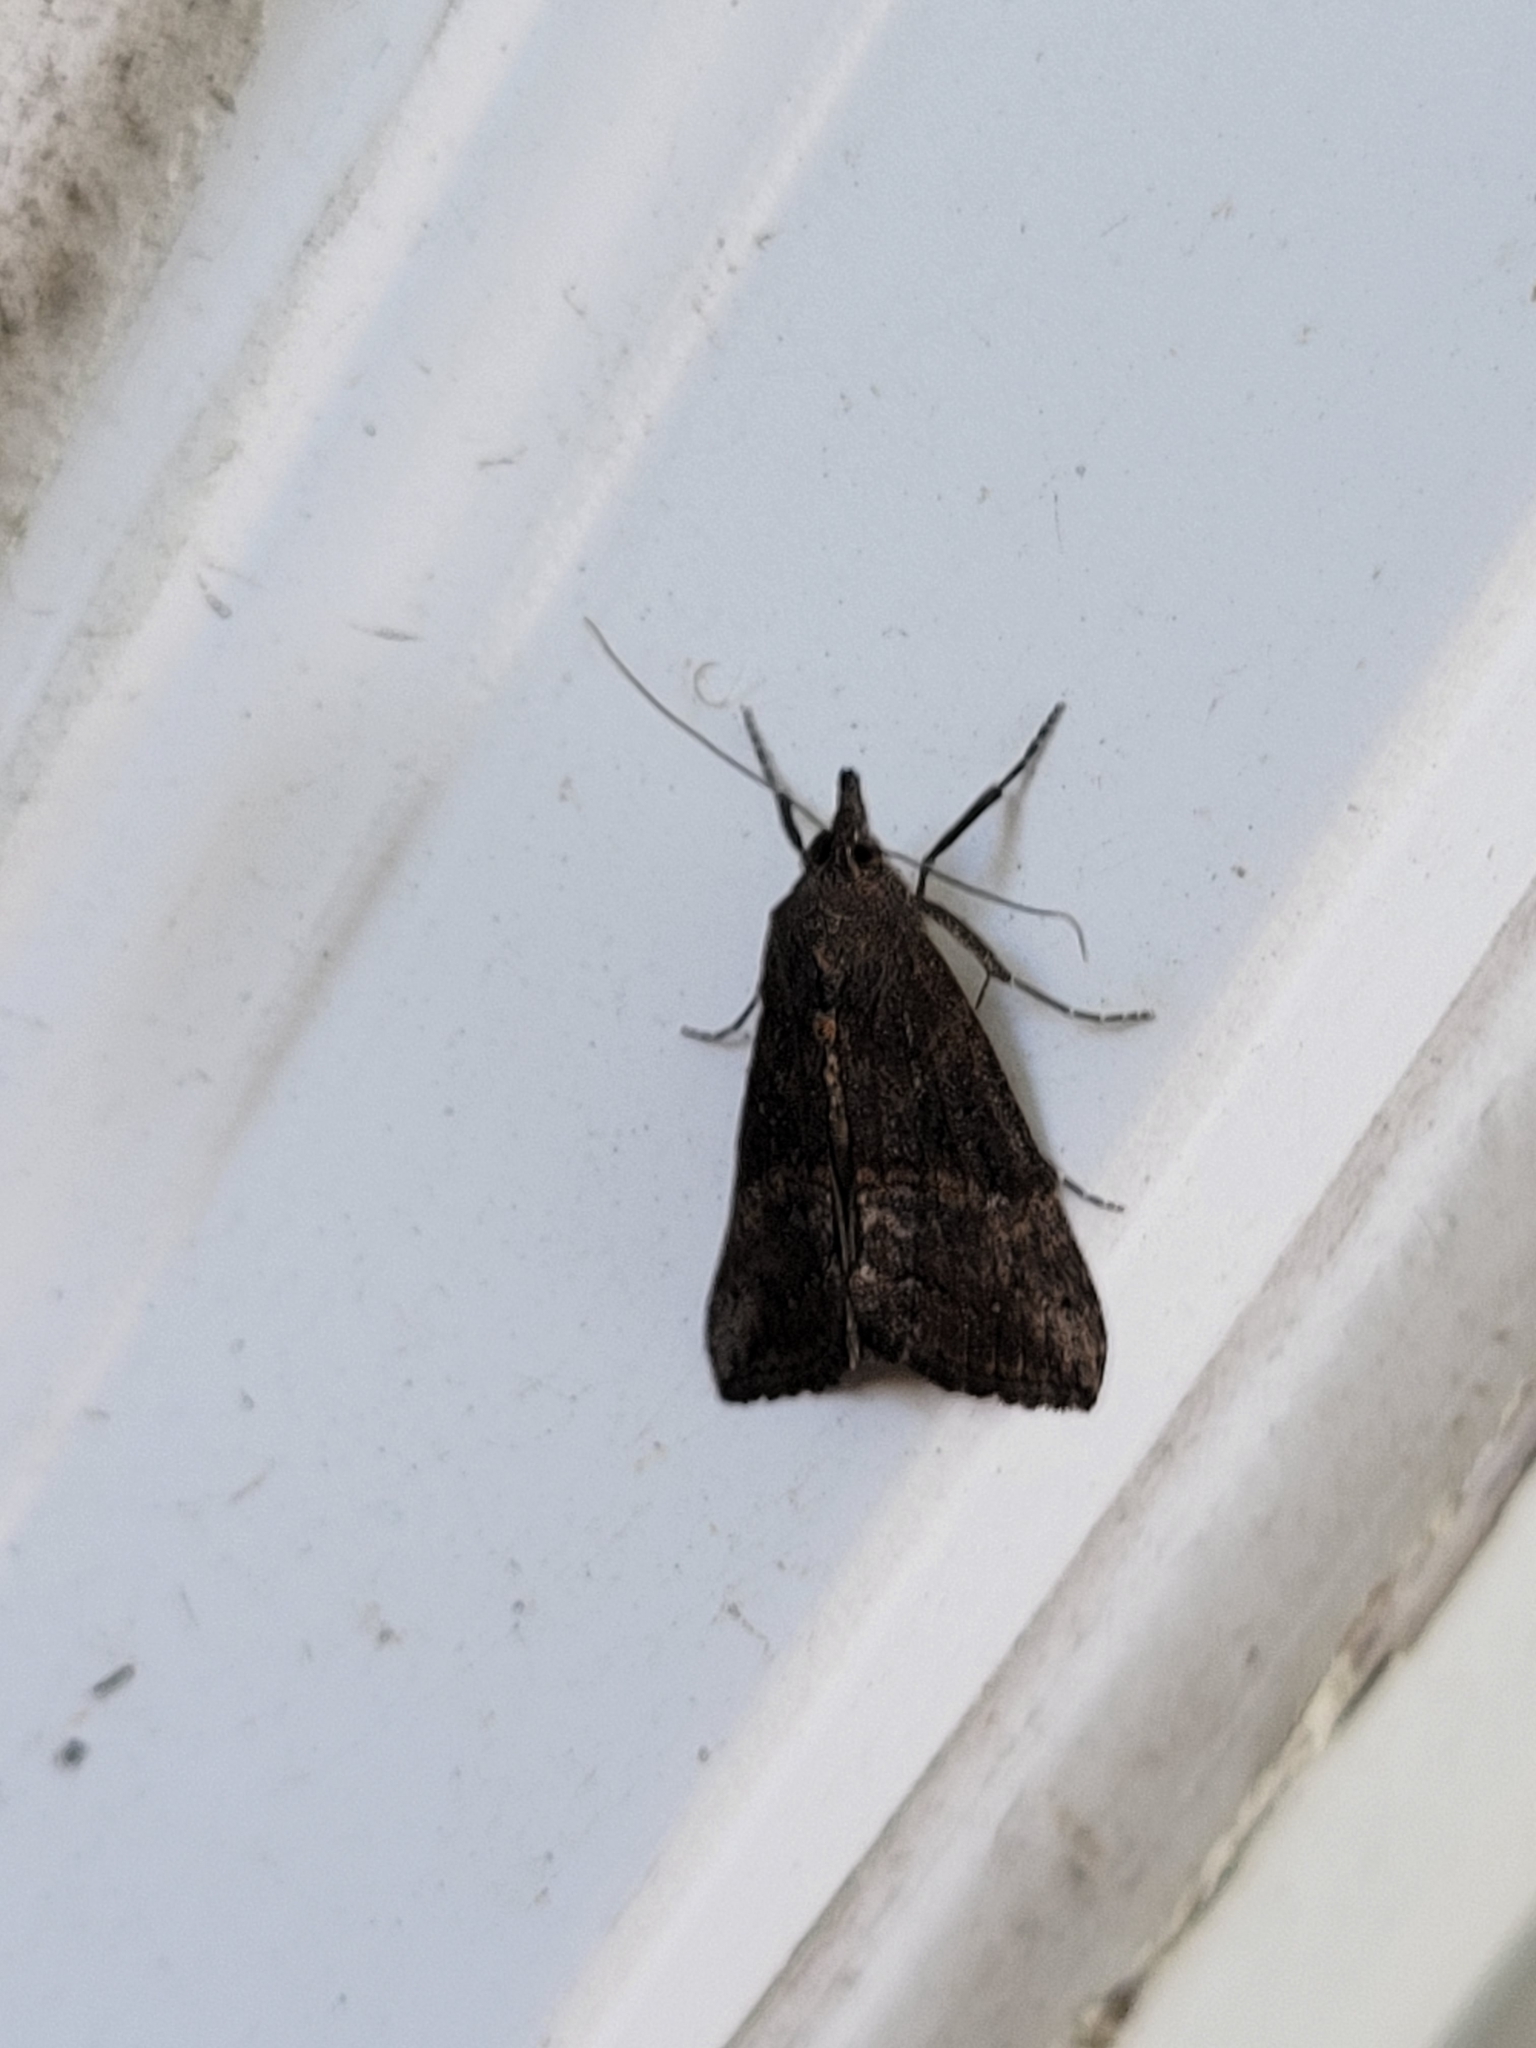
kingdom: Animalia
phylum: Arthropoda
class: Insecta
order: Lepidoptera
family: Erebidae
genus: Hypena
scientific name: Hypena scabra
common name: Green cloverworm
